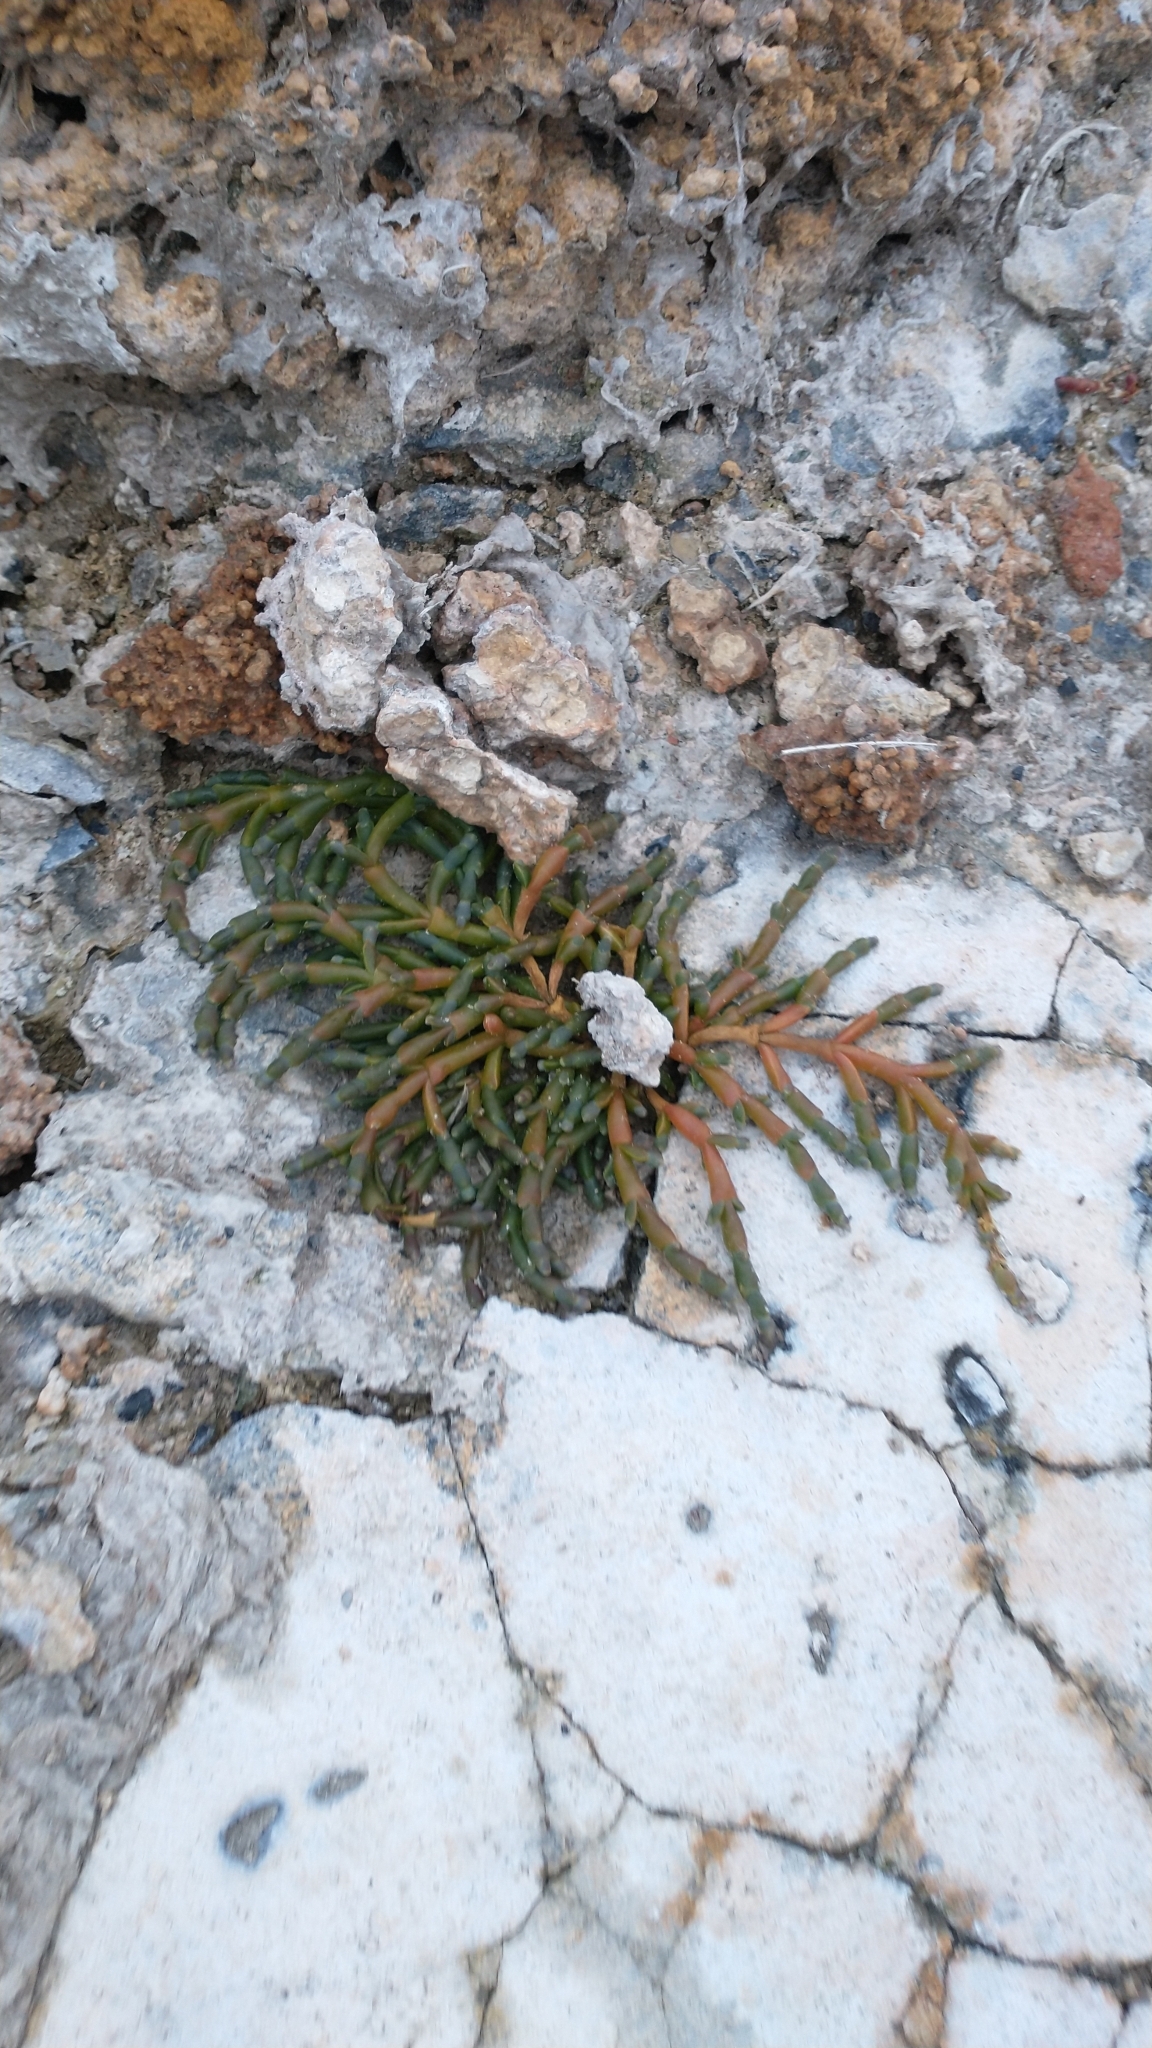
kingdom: Plantae
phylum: Tracheophyta
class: Magnoliopsida
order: Caryophyllales
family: Amaranthaceae
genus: Salicornia
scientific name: Salicornia magellanica
